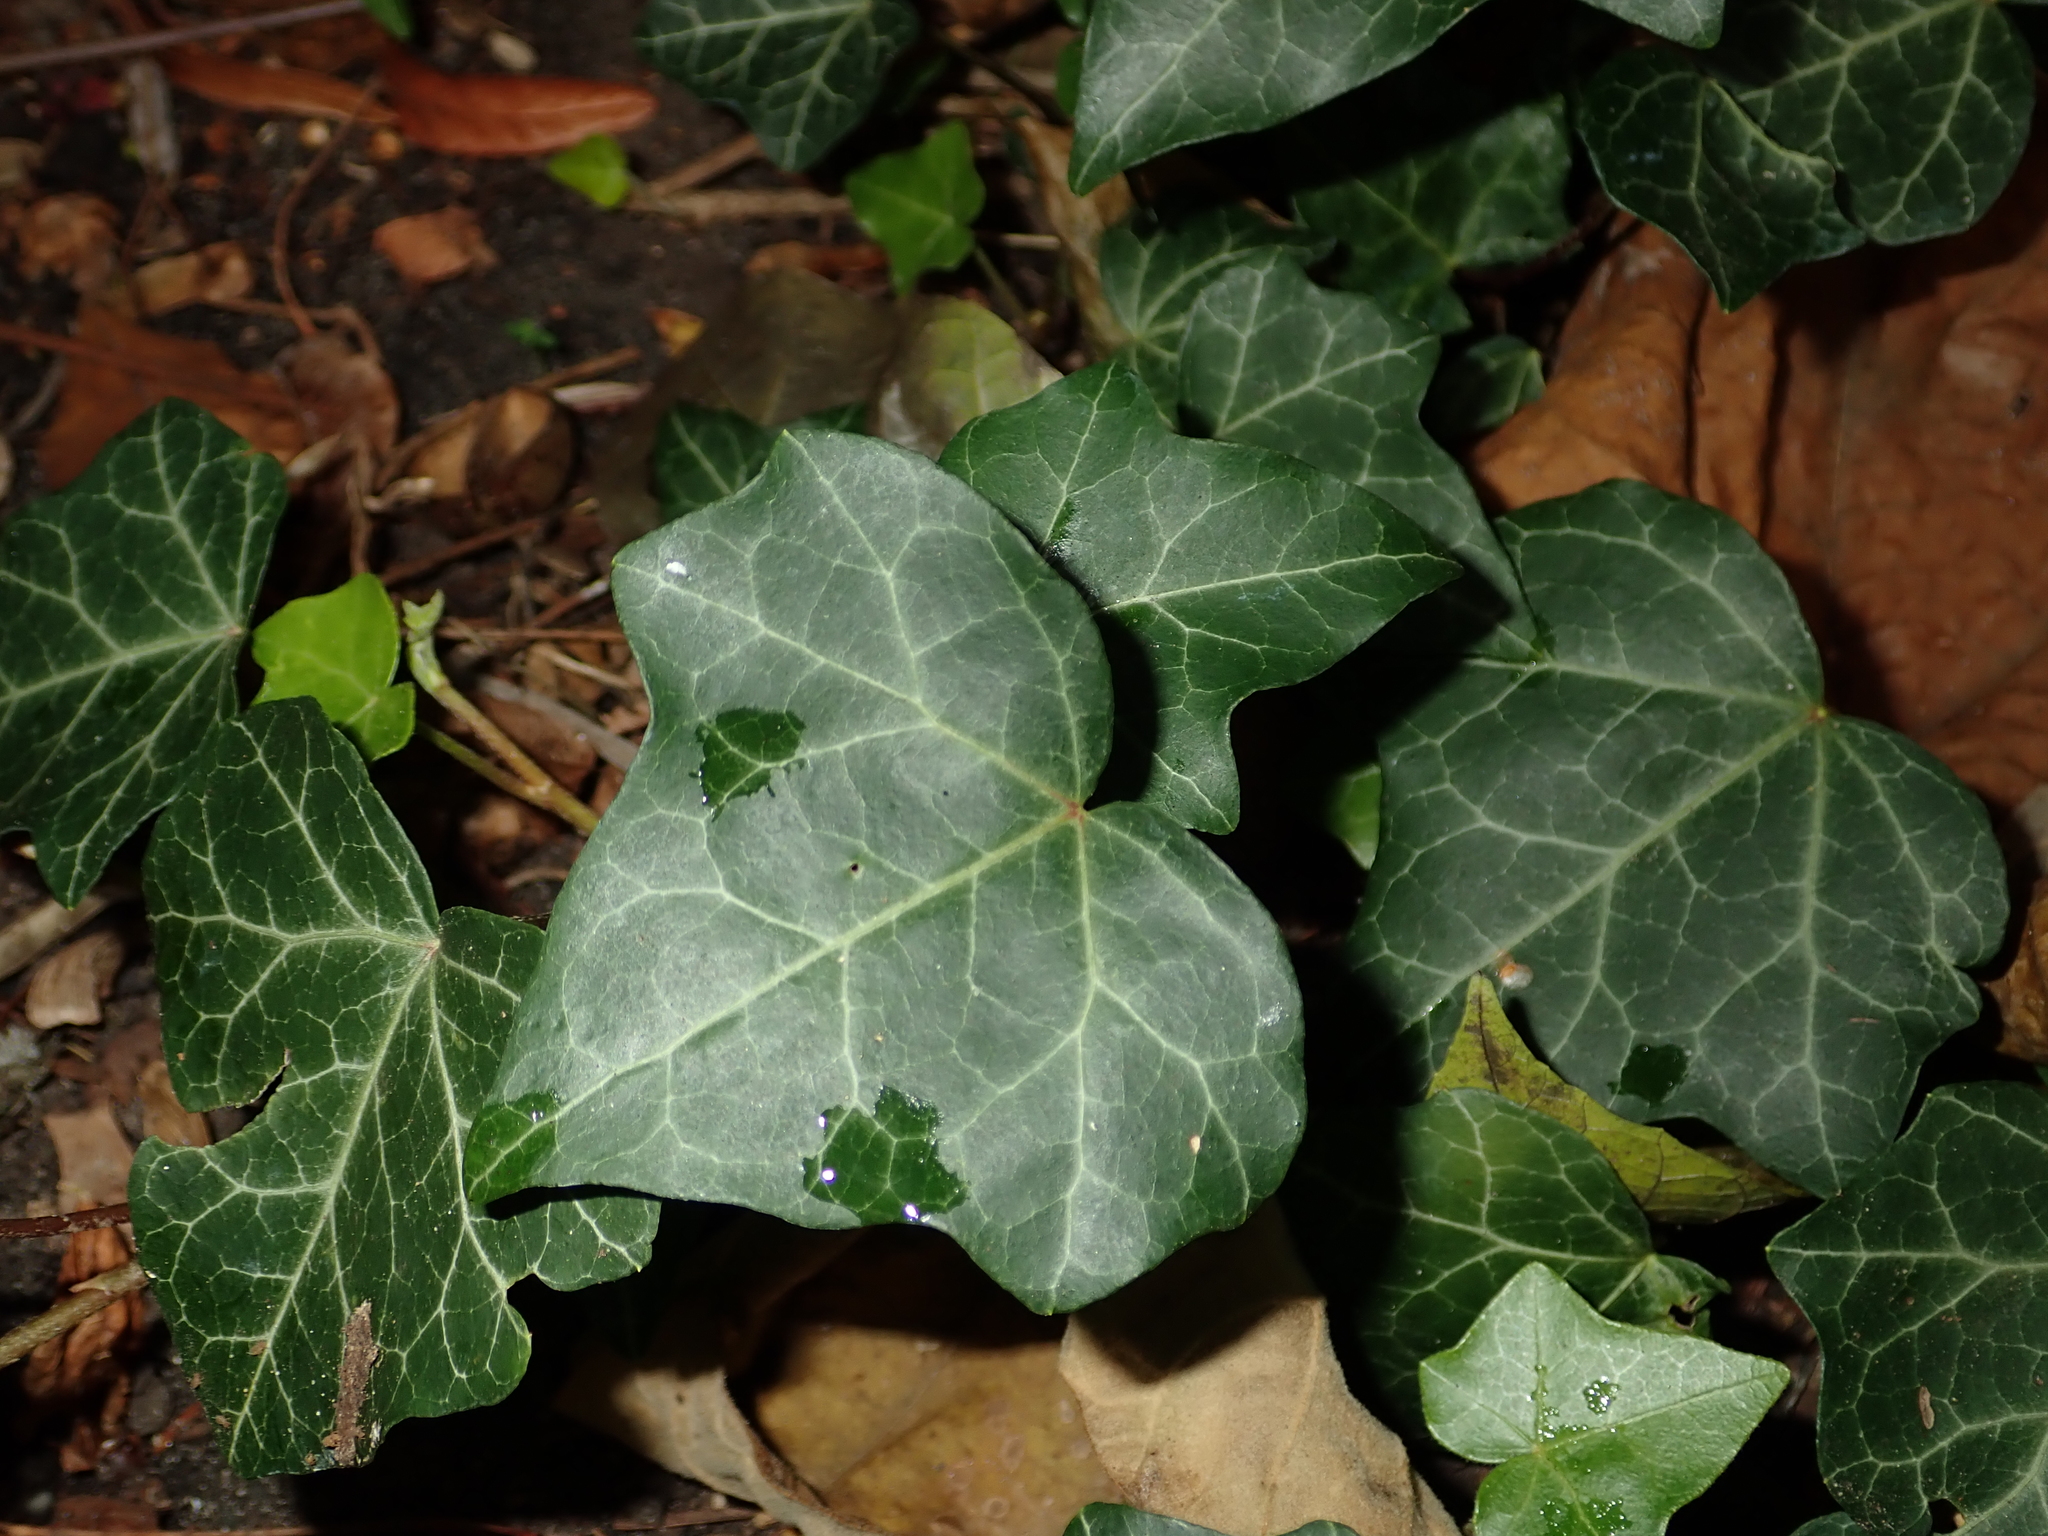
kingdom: Plantae
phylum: Tracheophyta
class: Magnoliopsida
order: Apiales
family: Araliaceae
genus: Hedera
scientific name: Hedera helix
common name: Ivy
